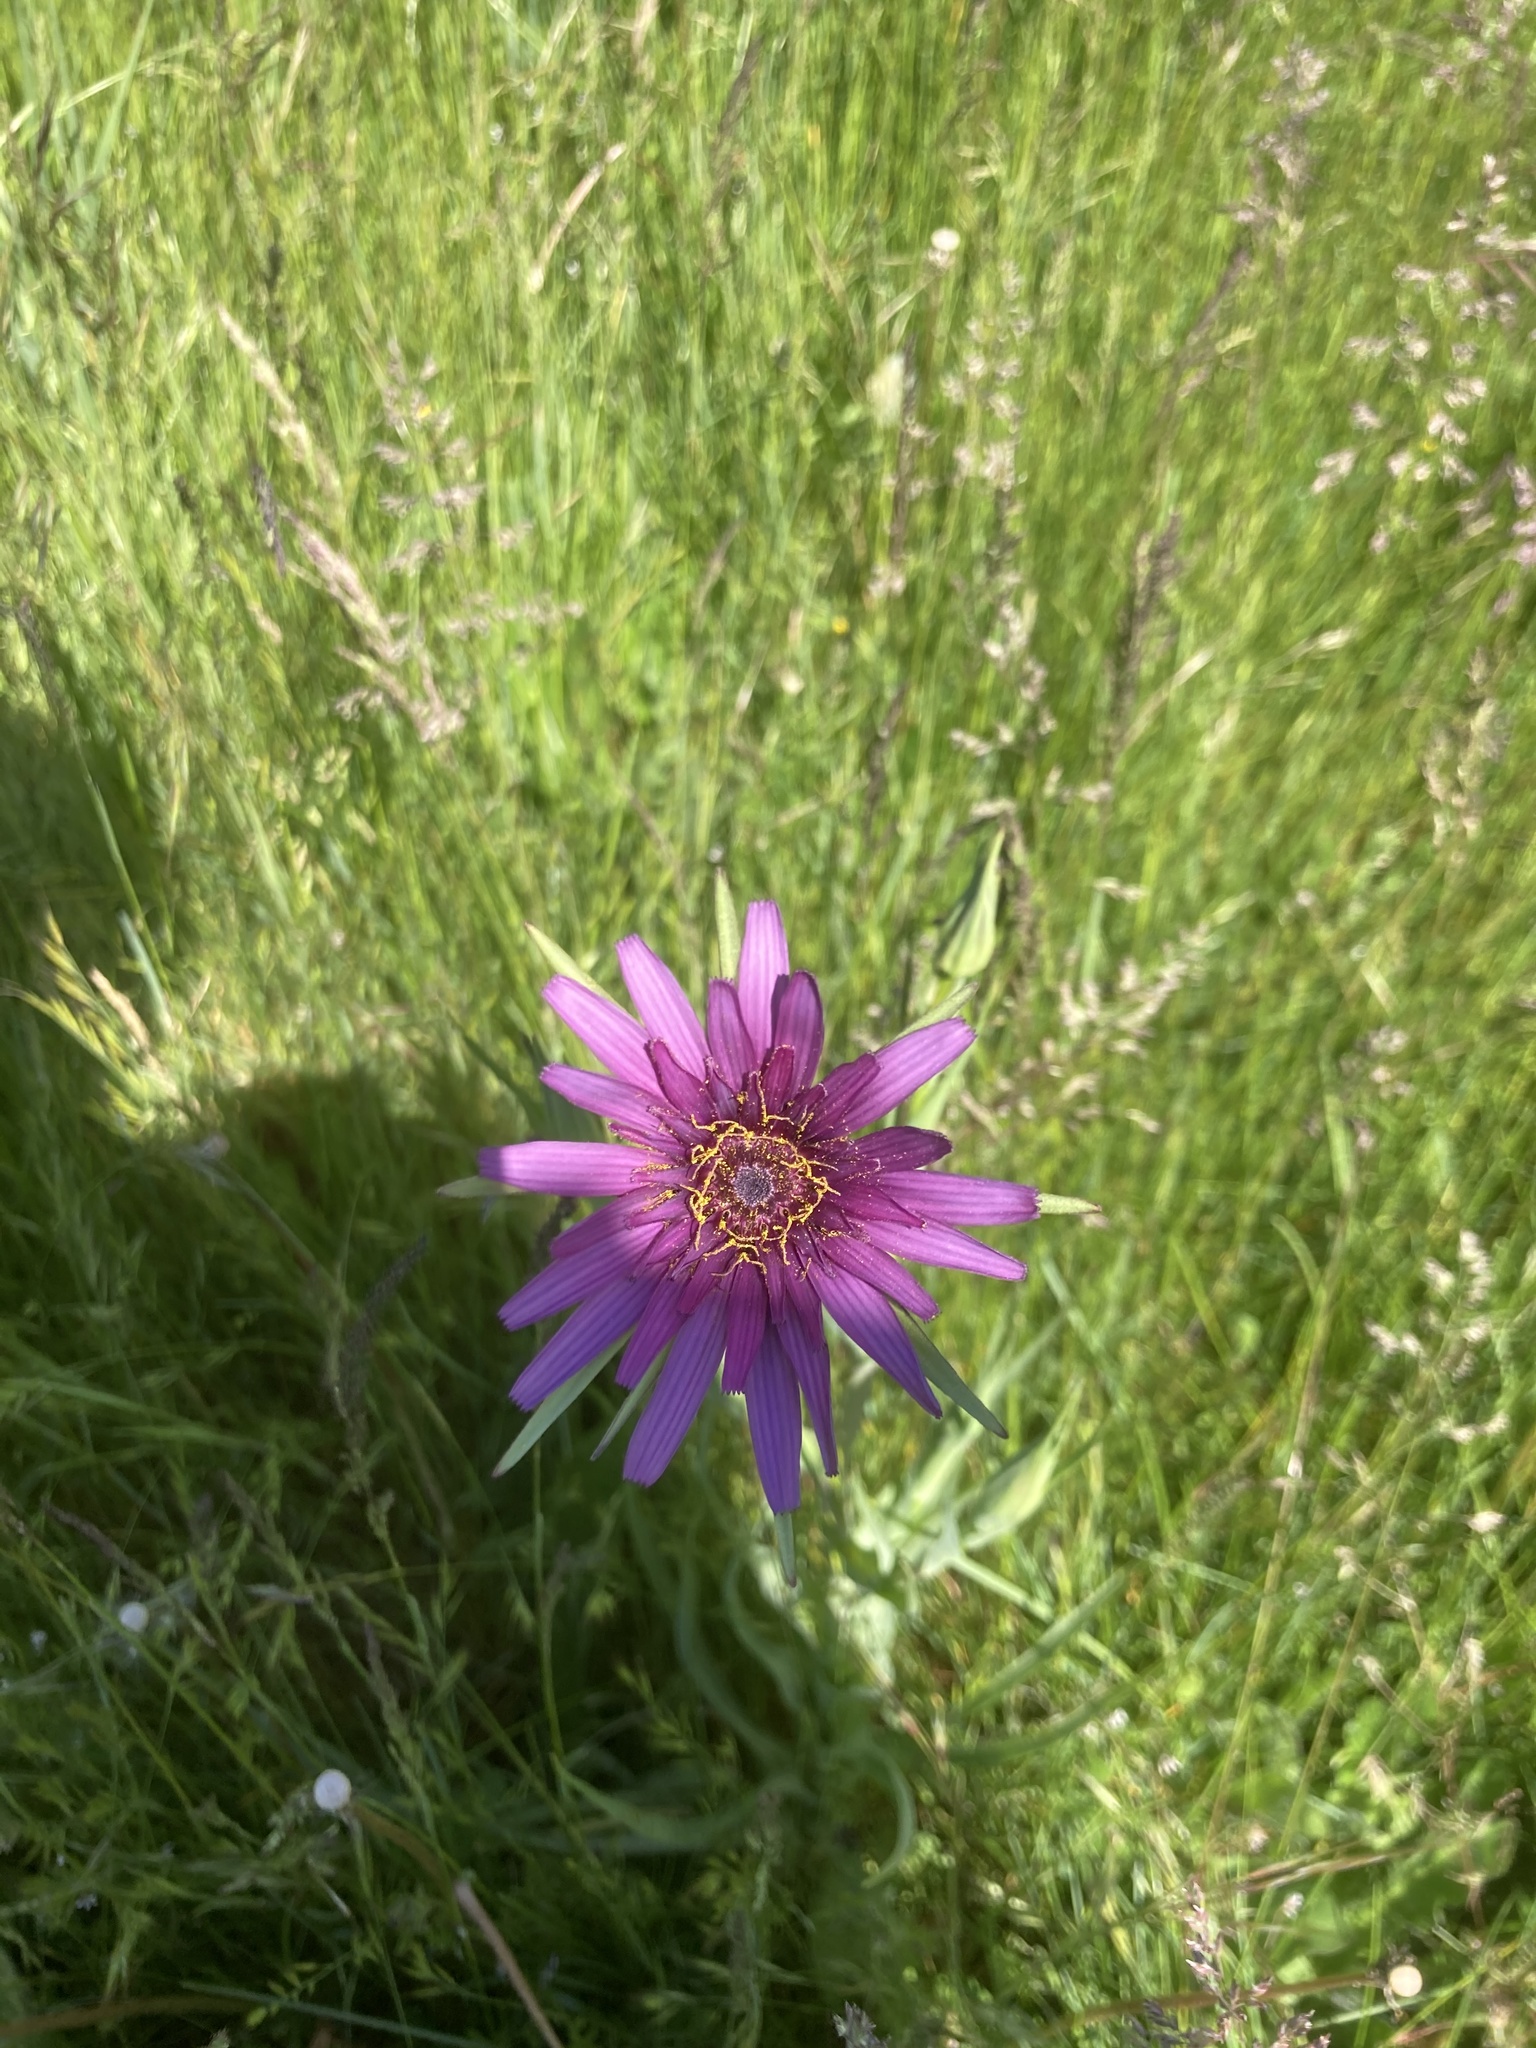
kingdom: Plantae
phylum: Tracheophyta
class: Magnoliopsida
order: Asterales
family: Asteraceae
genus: Tragopogon
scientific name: Tragopogon porrifolius
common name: Salsify
